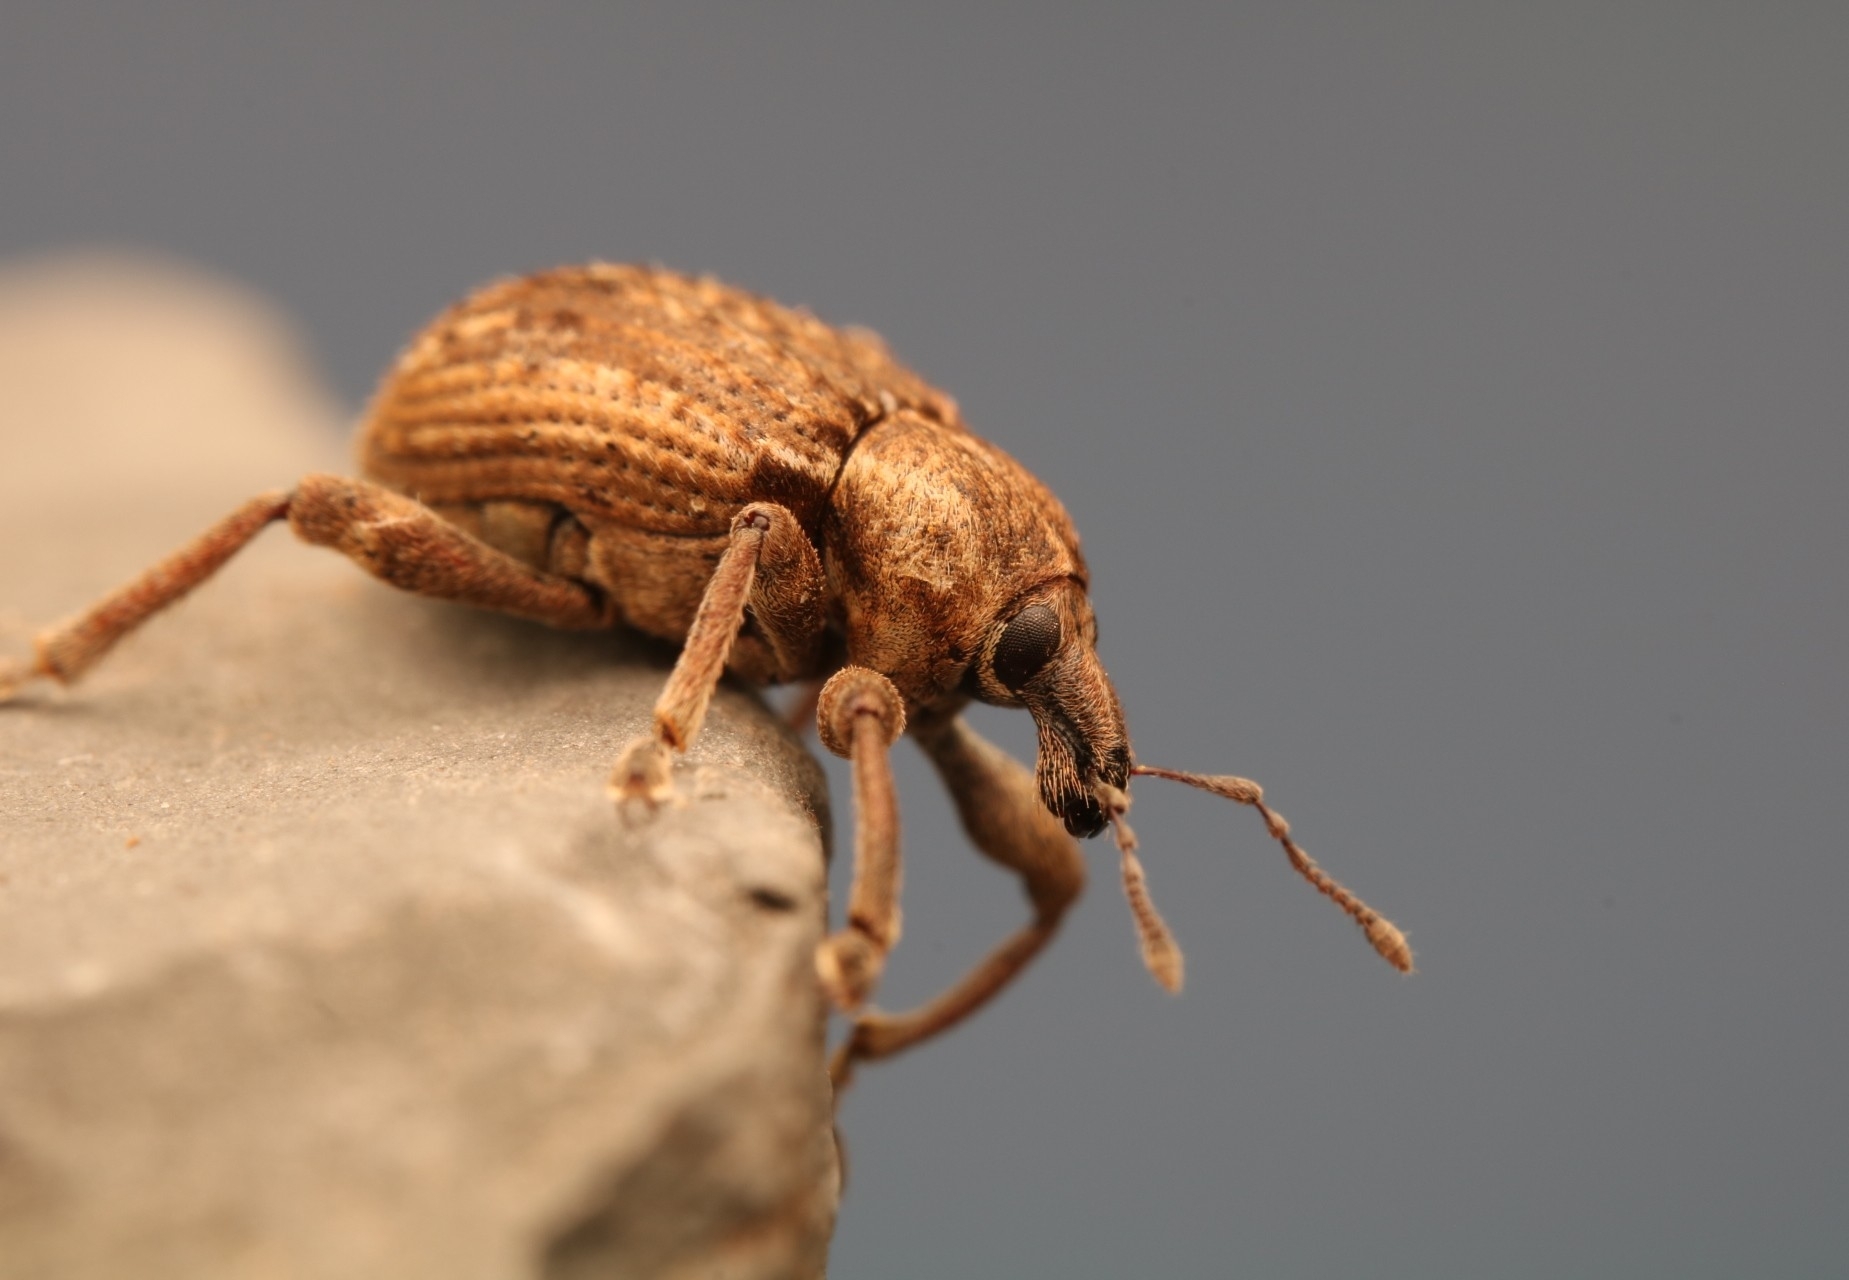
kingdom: Animalia
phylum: Arthropoda
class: Insecta
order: Coleoptera
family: Curculionidae
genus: Brachypera
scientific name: Brachypera zoilus
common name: Clover leaf weevil
